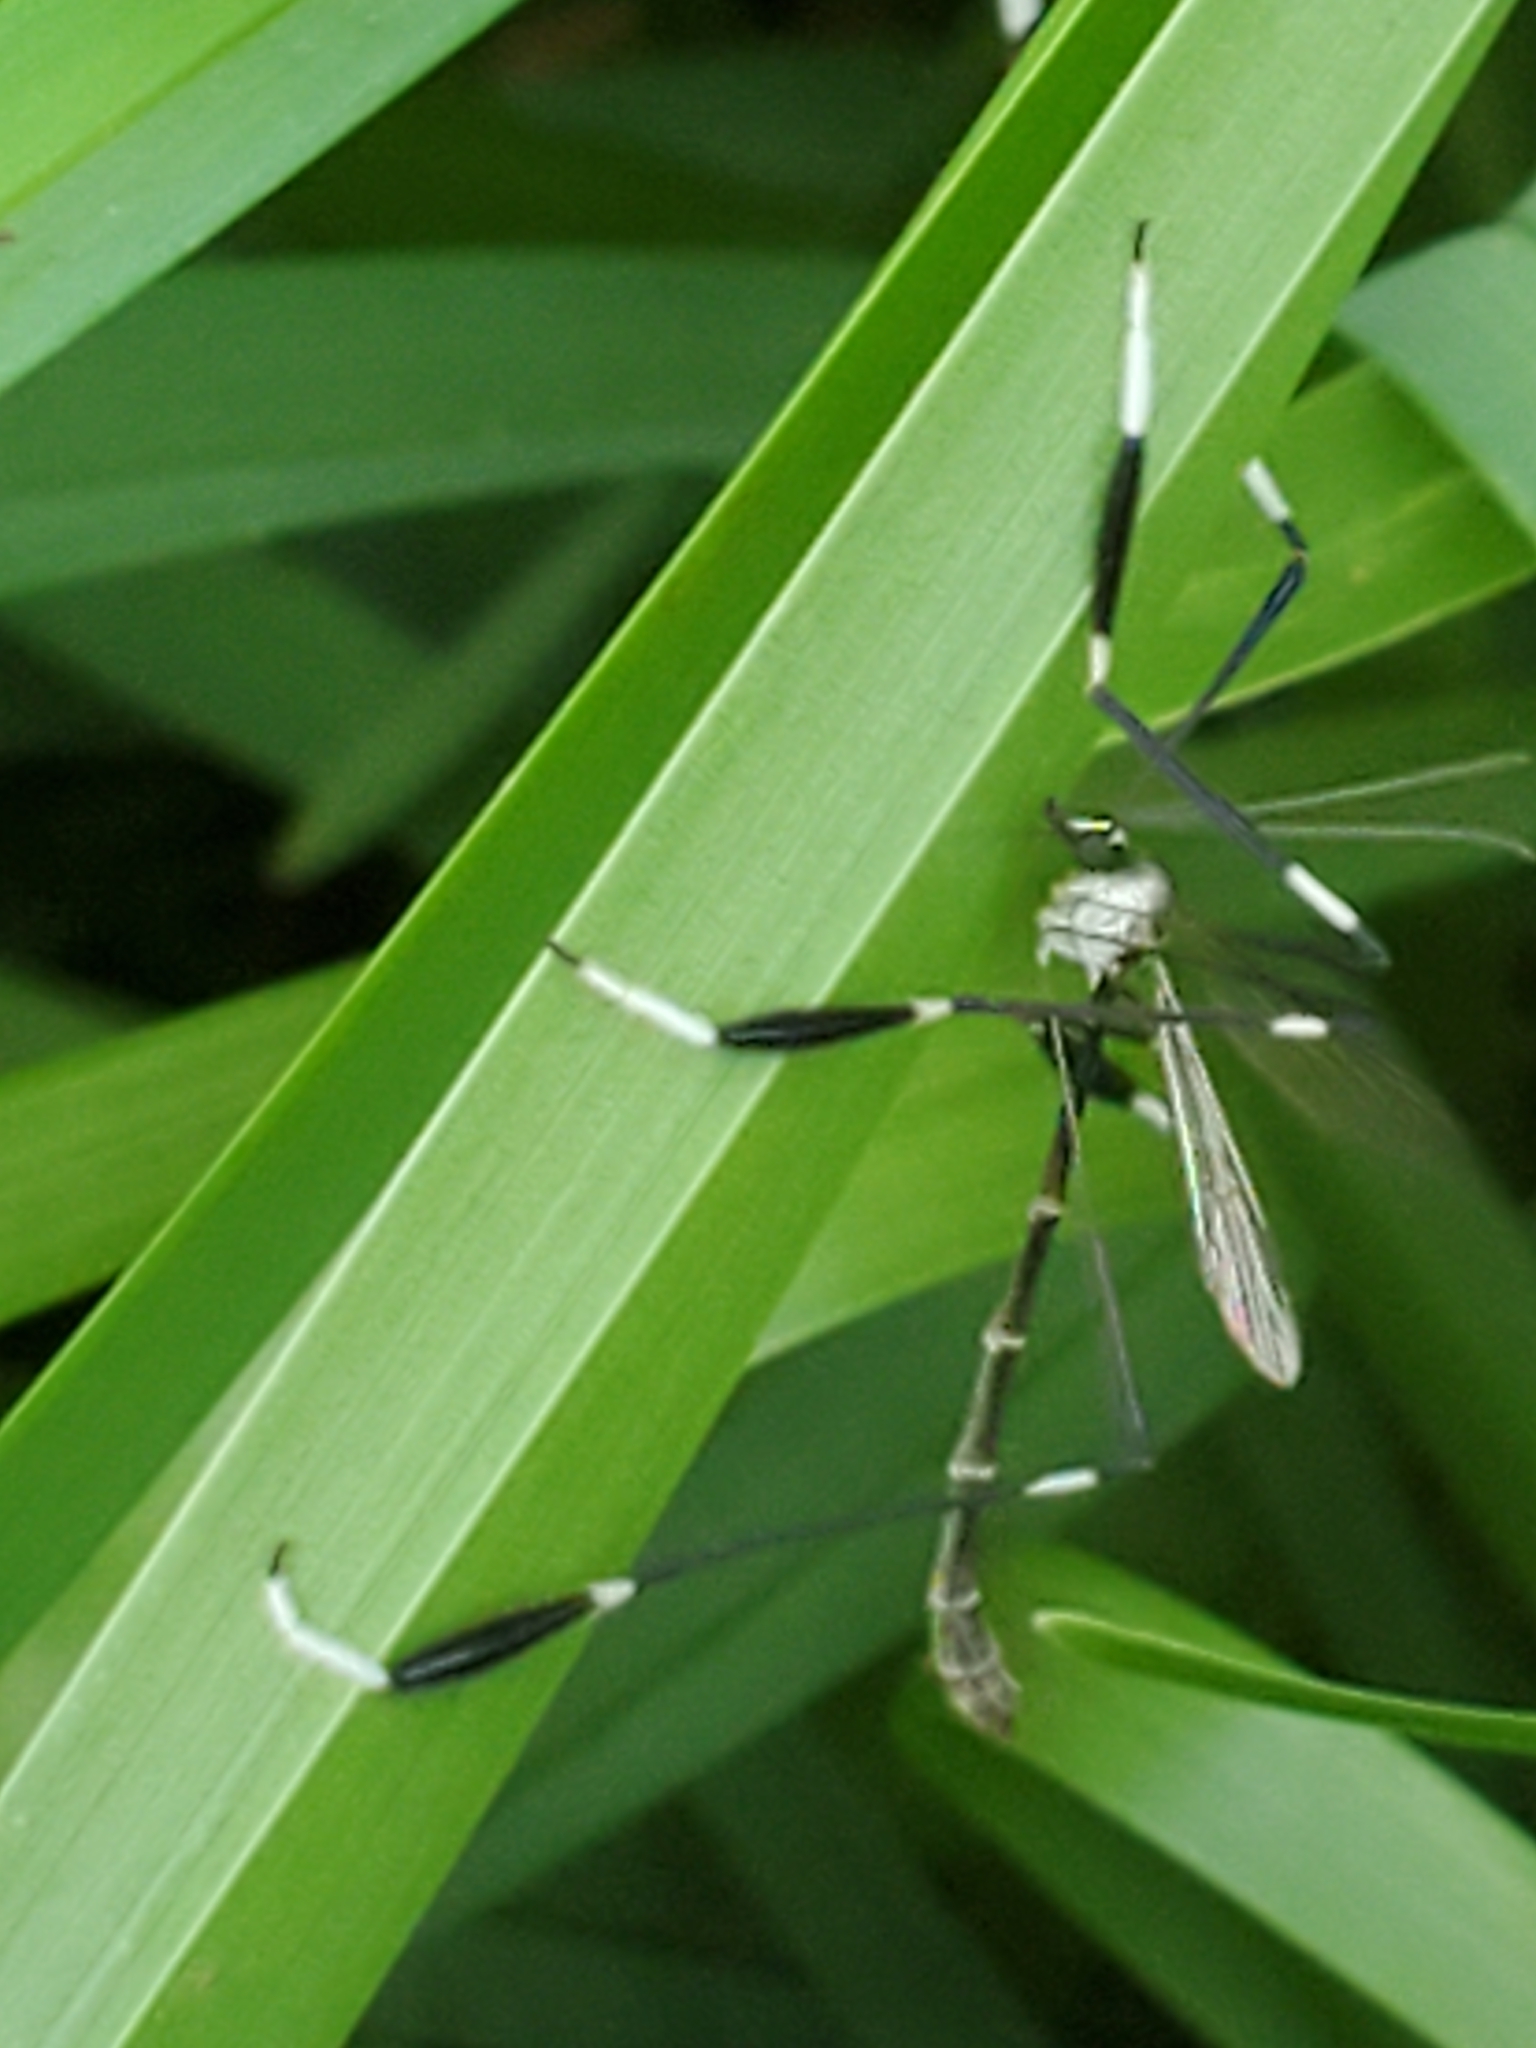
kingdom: Animalia
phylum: Arthropoda
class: Insecta
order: Diptera
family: Ptychopteridae
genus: Bittacomorpha
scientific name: Bittacomorpha clavipes
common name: Eastern phantom crane fly
